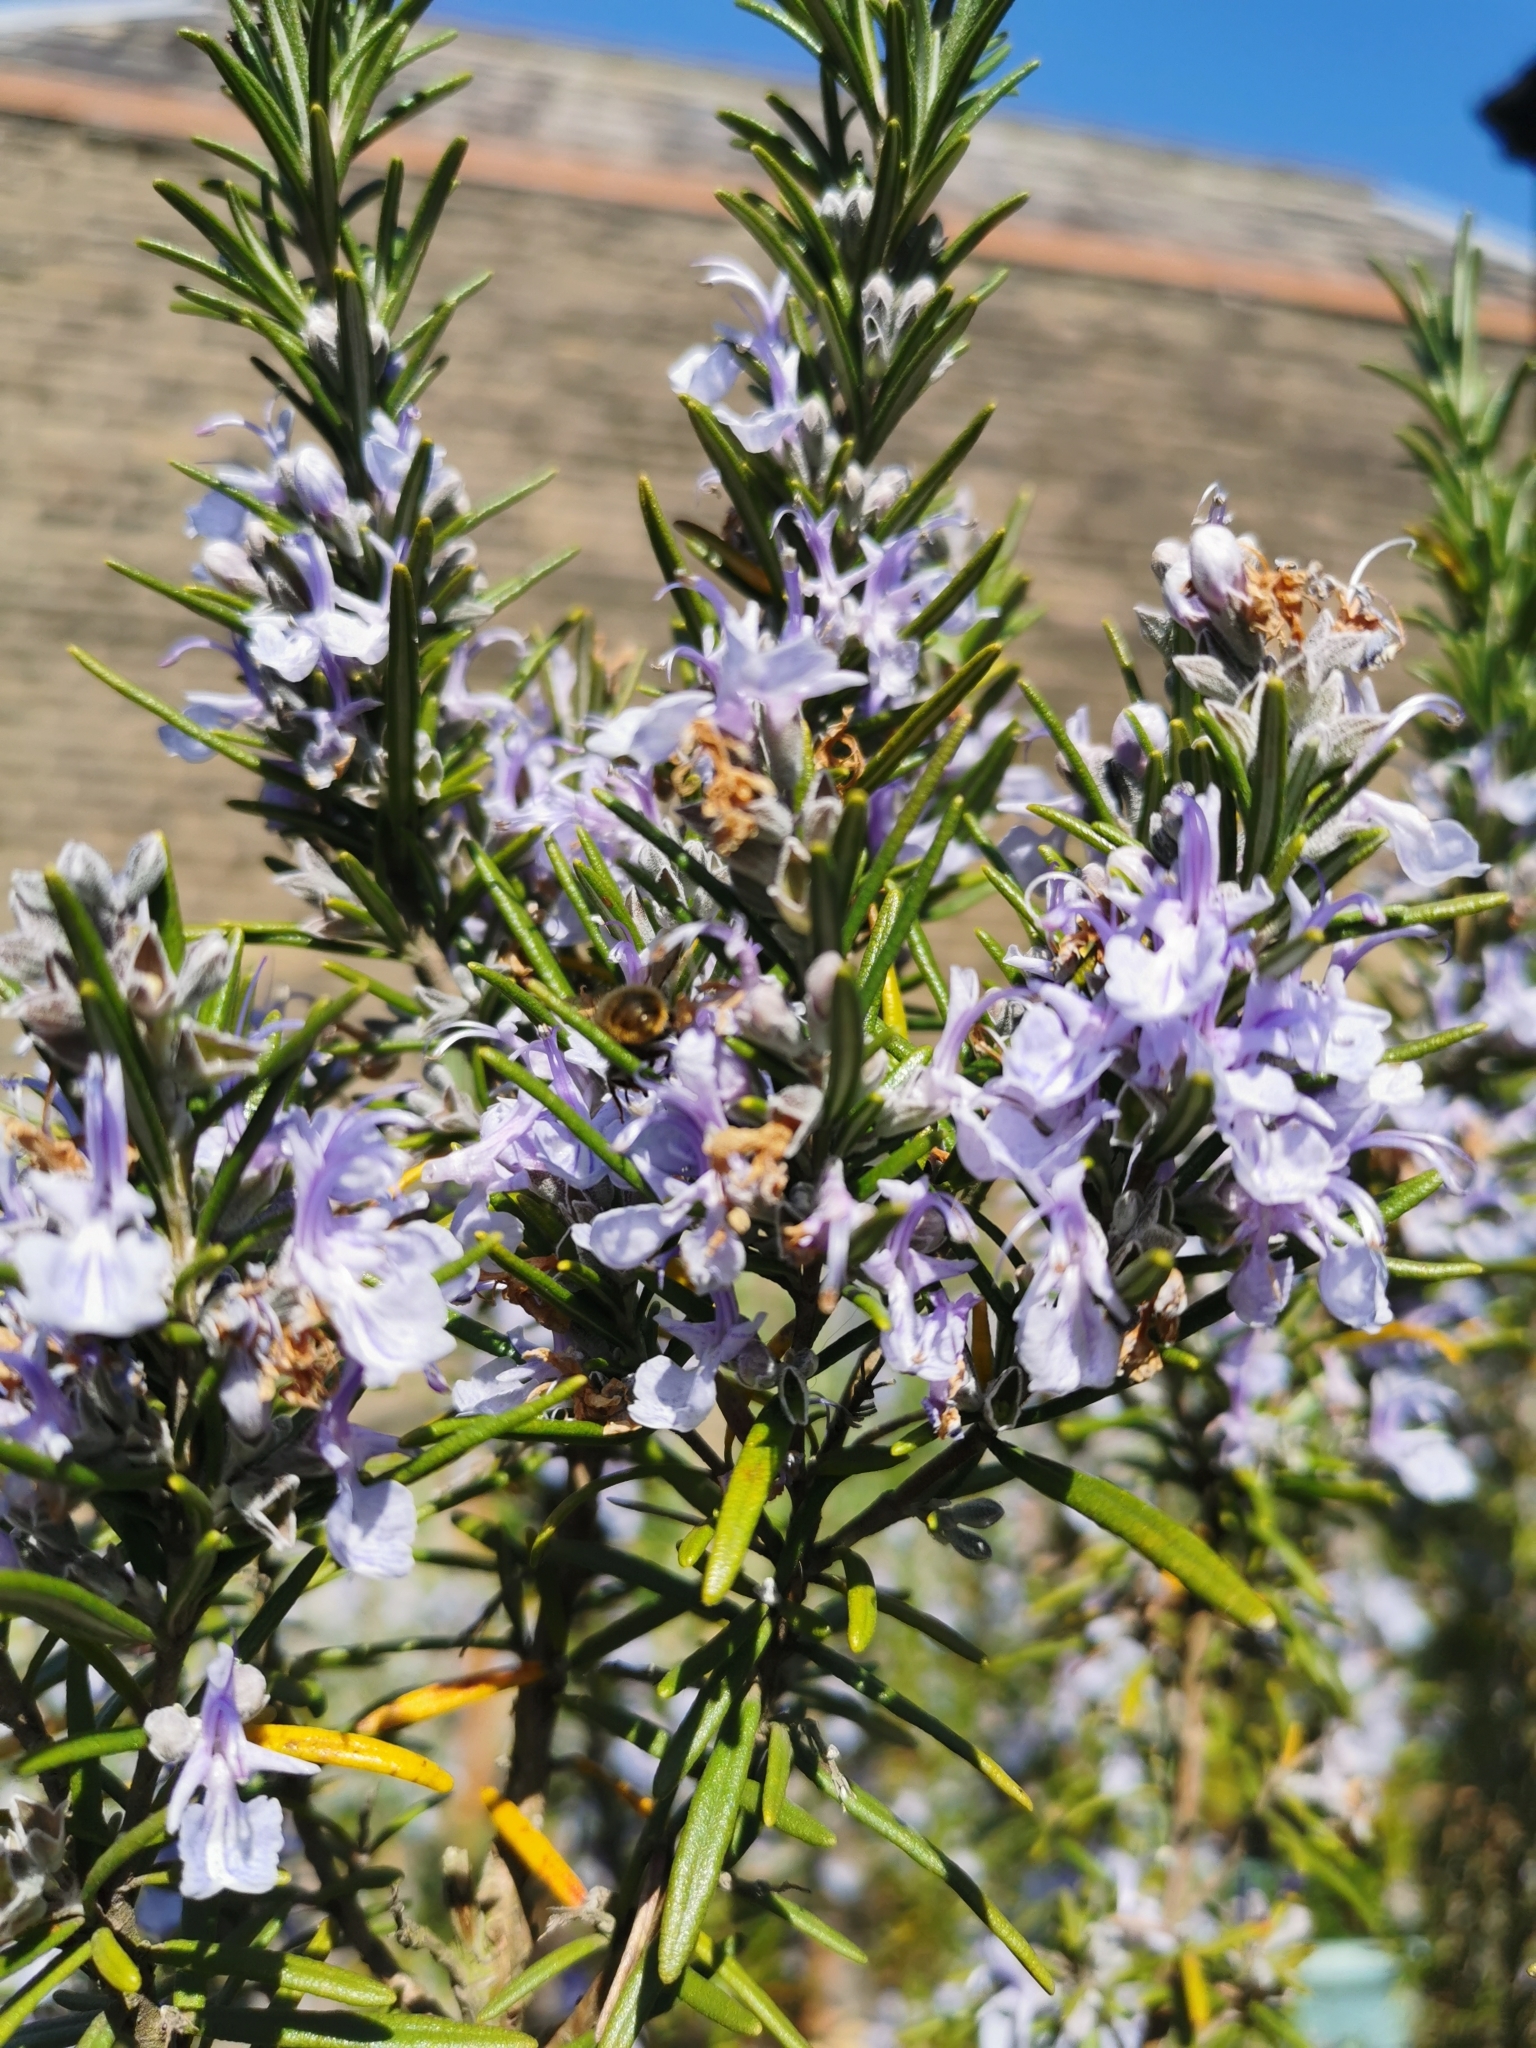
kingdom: Animalia
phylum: Arthropoda
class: Insecta
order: Hymenoptera
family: Megachilidae
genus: Osmia
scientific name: Osmia bicornis
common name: Red mason bee
